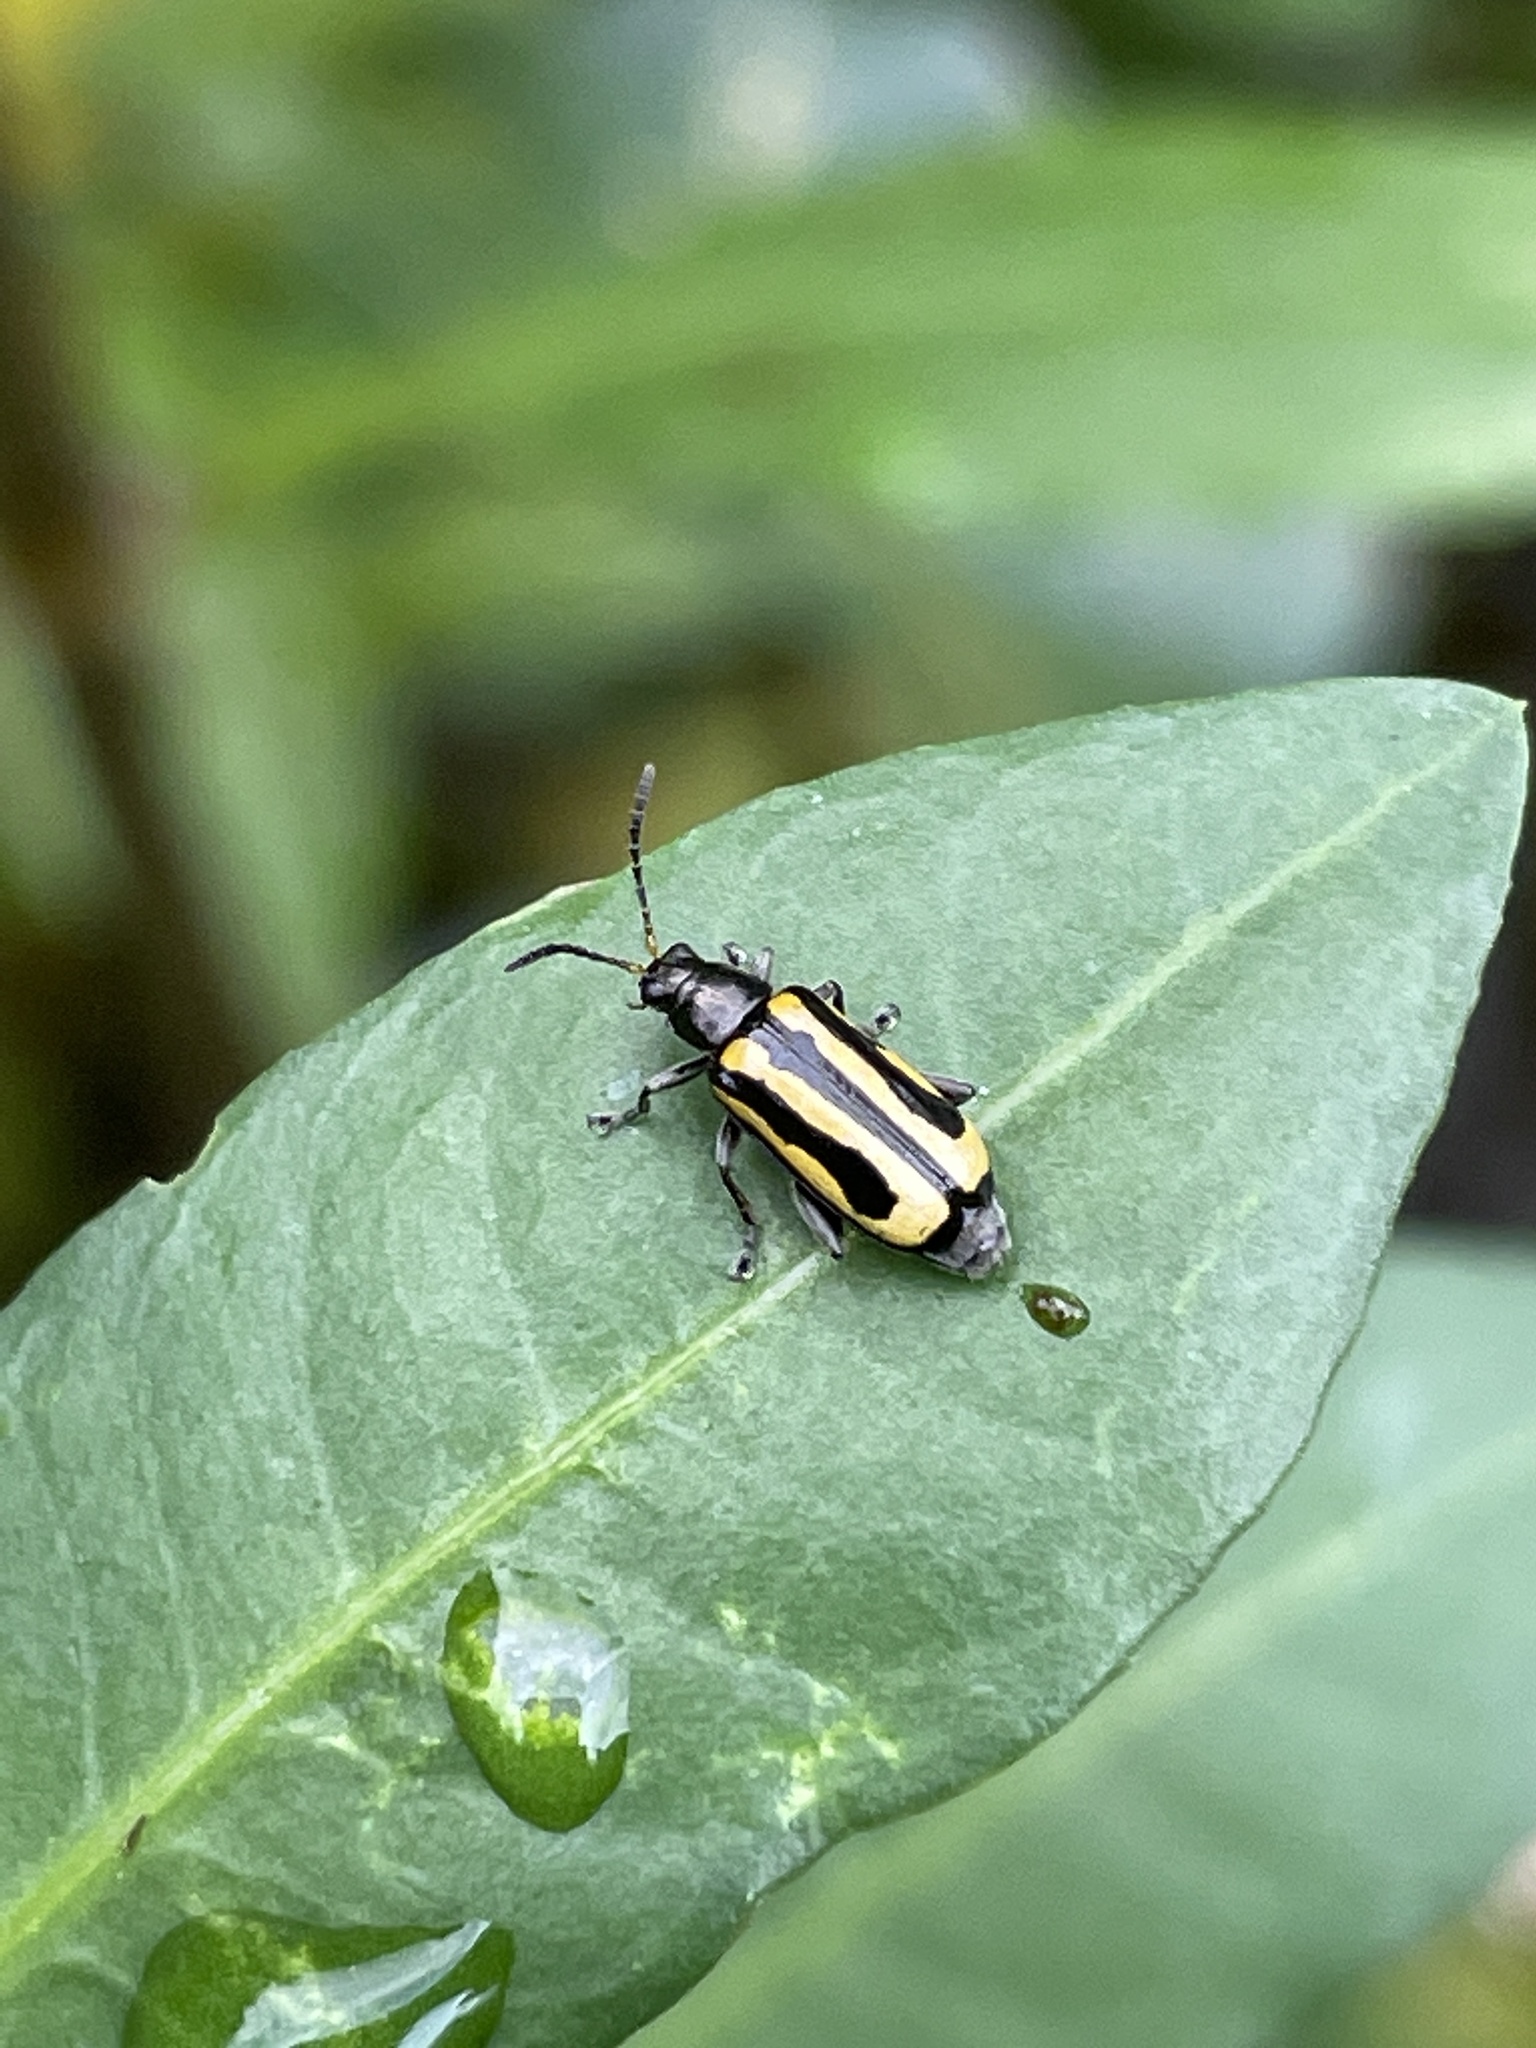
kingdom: Animalia
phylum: Arthropoda
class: Insecta
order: Coleoptera
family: Chrysomelidae
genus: Agasicles
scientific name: Agasicles hygrophila
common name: Alligatorweed flea beetle
